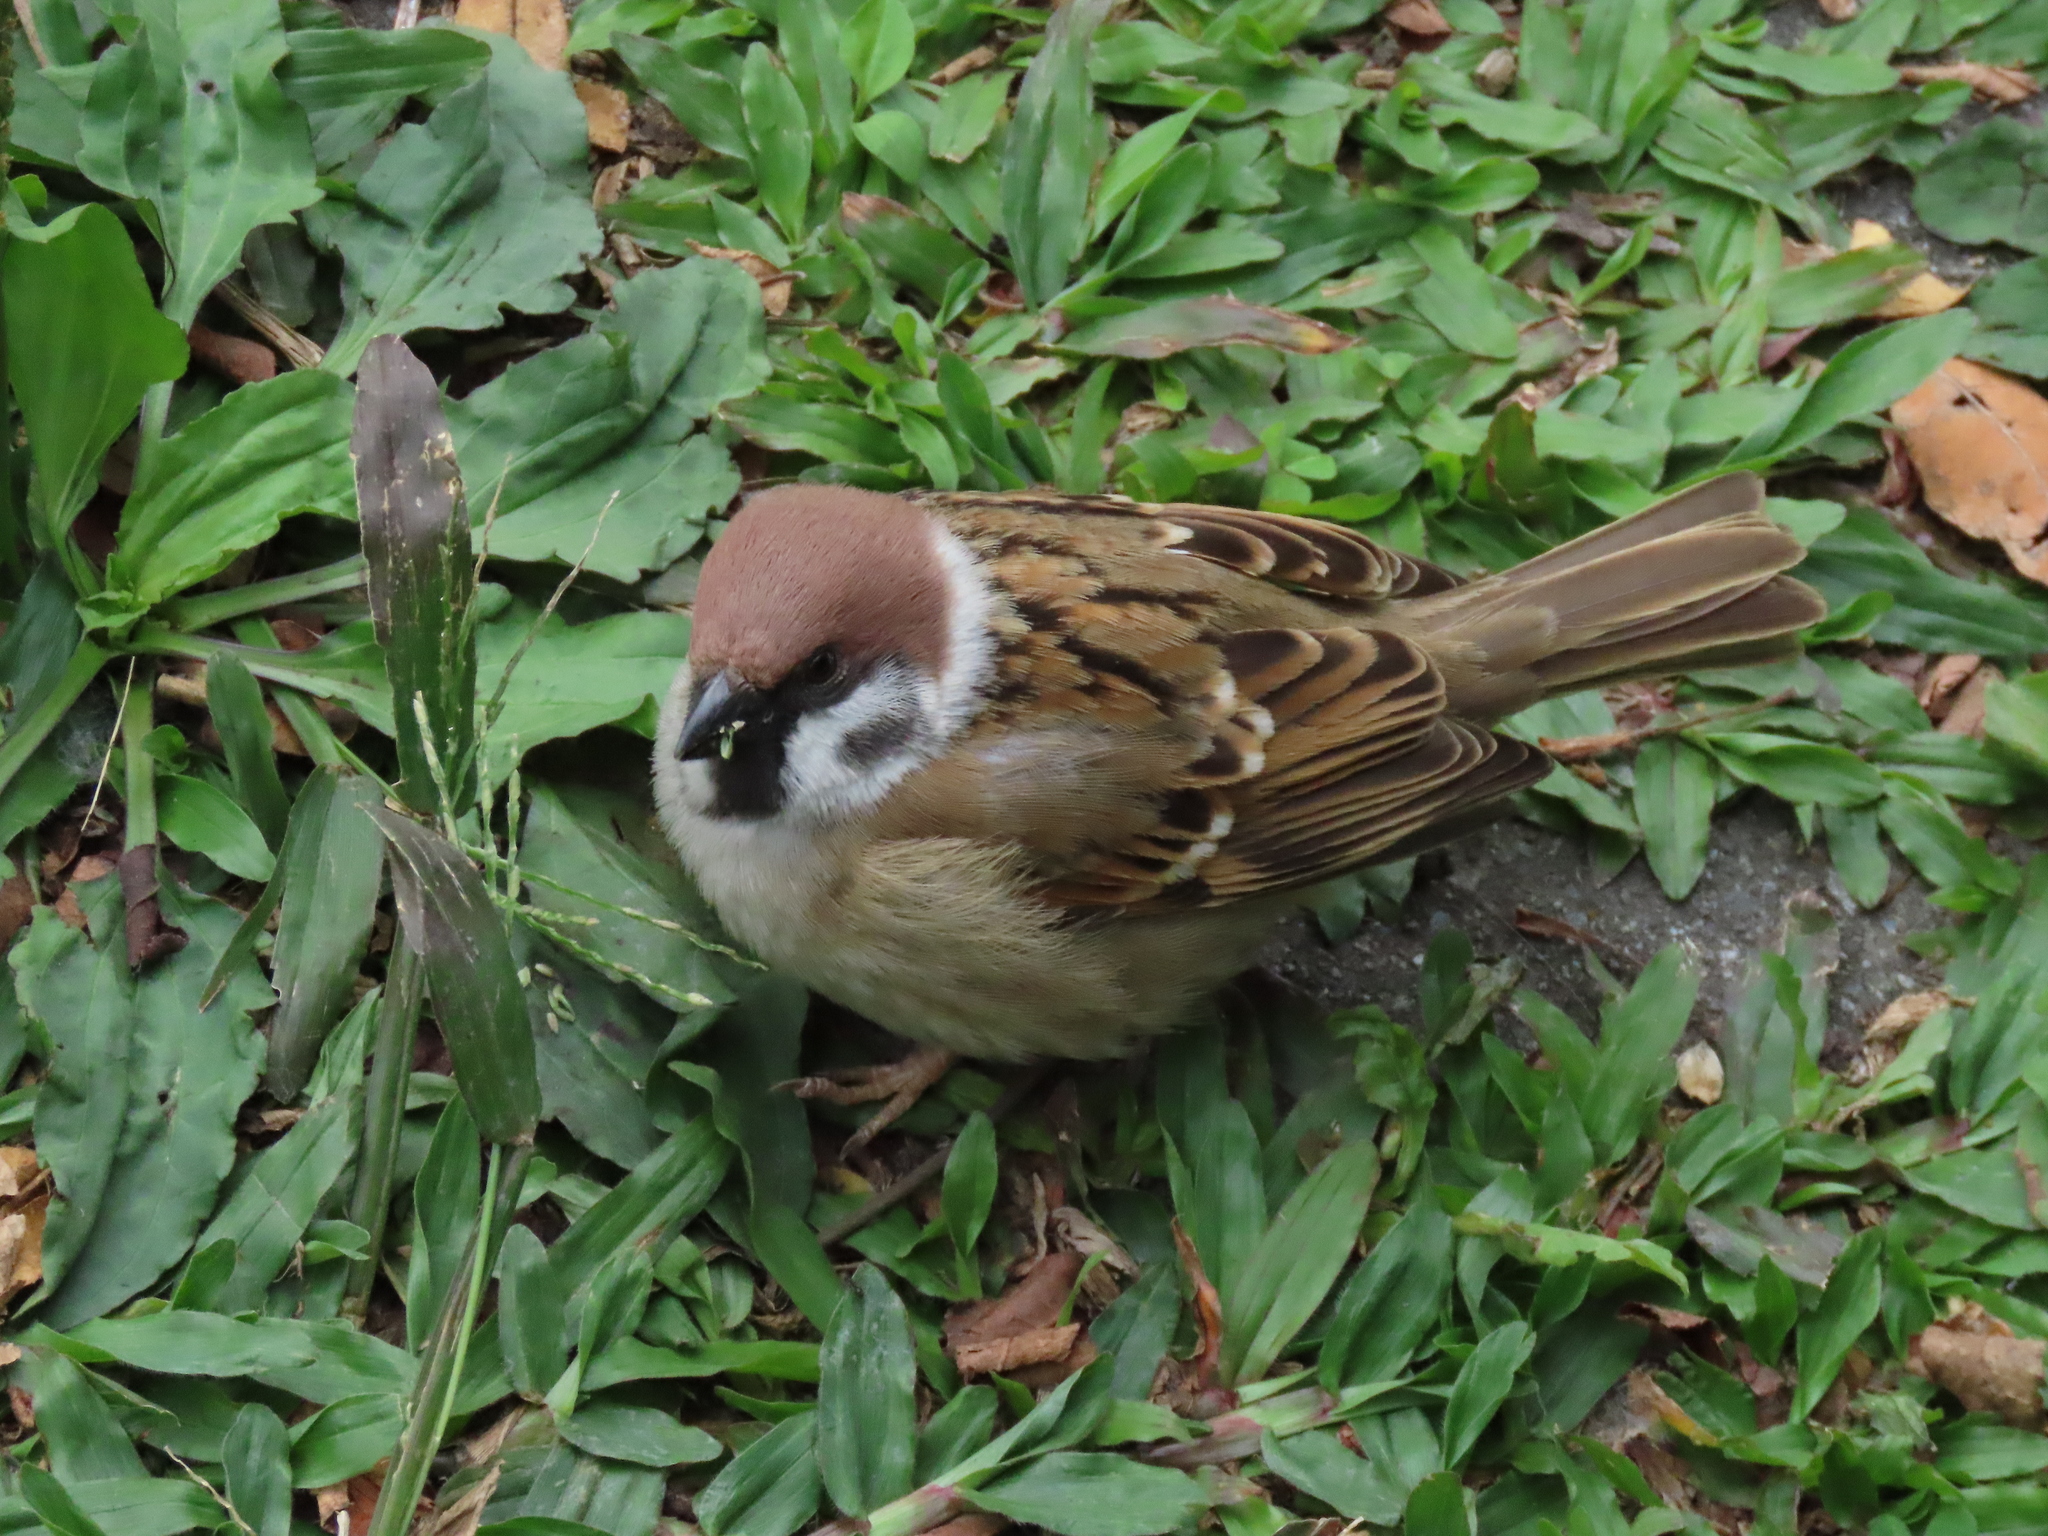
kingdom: Animalia
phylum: Chordata
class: Aves
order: Passeriformes
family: Passeridae
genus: Passer
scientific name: Passer montanus
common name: Eurasian tree sparrow
